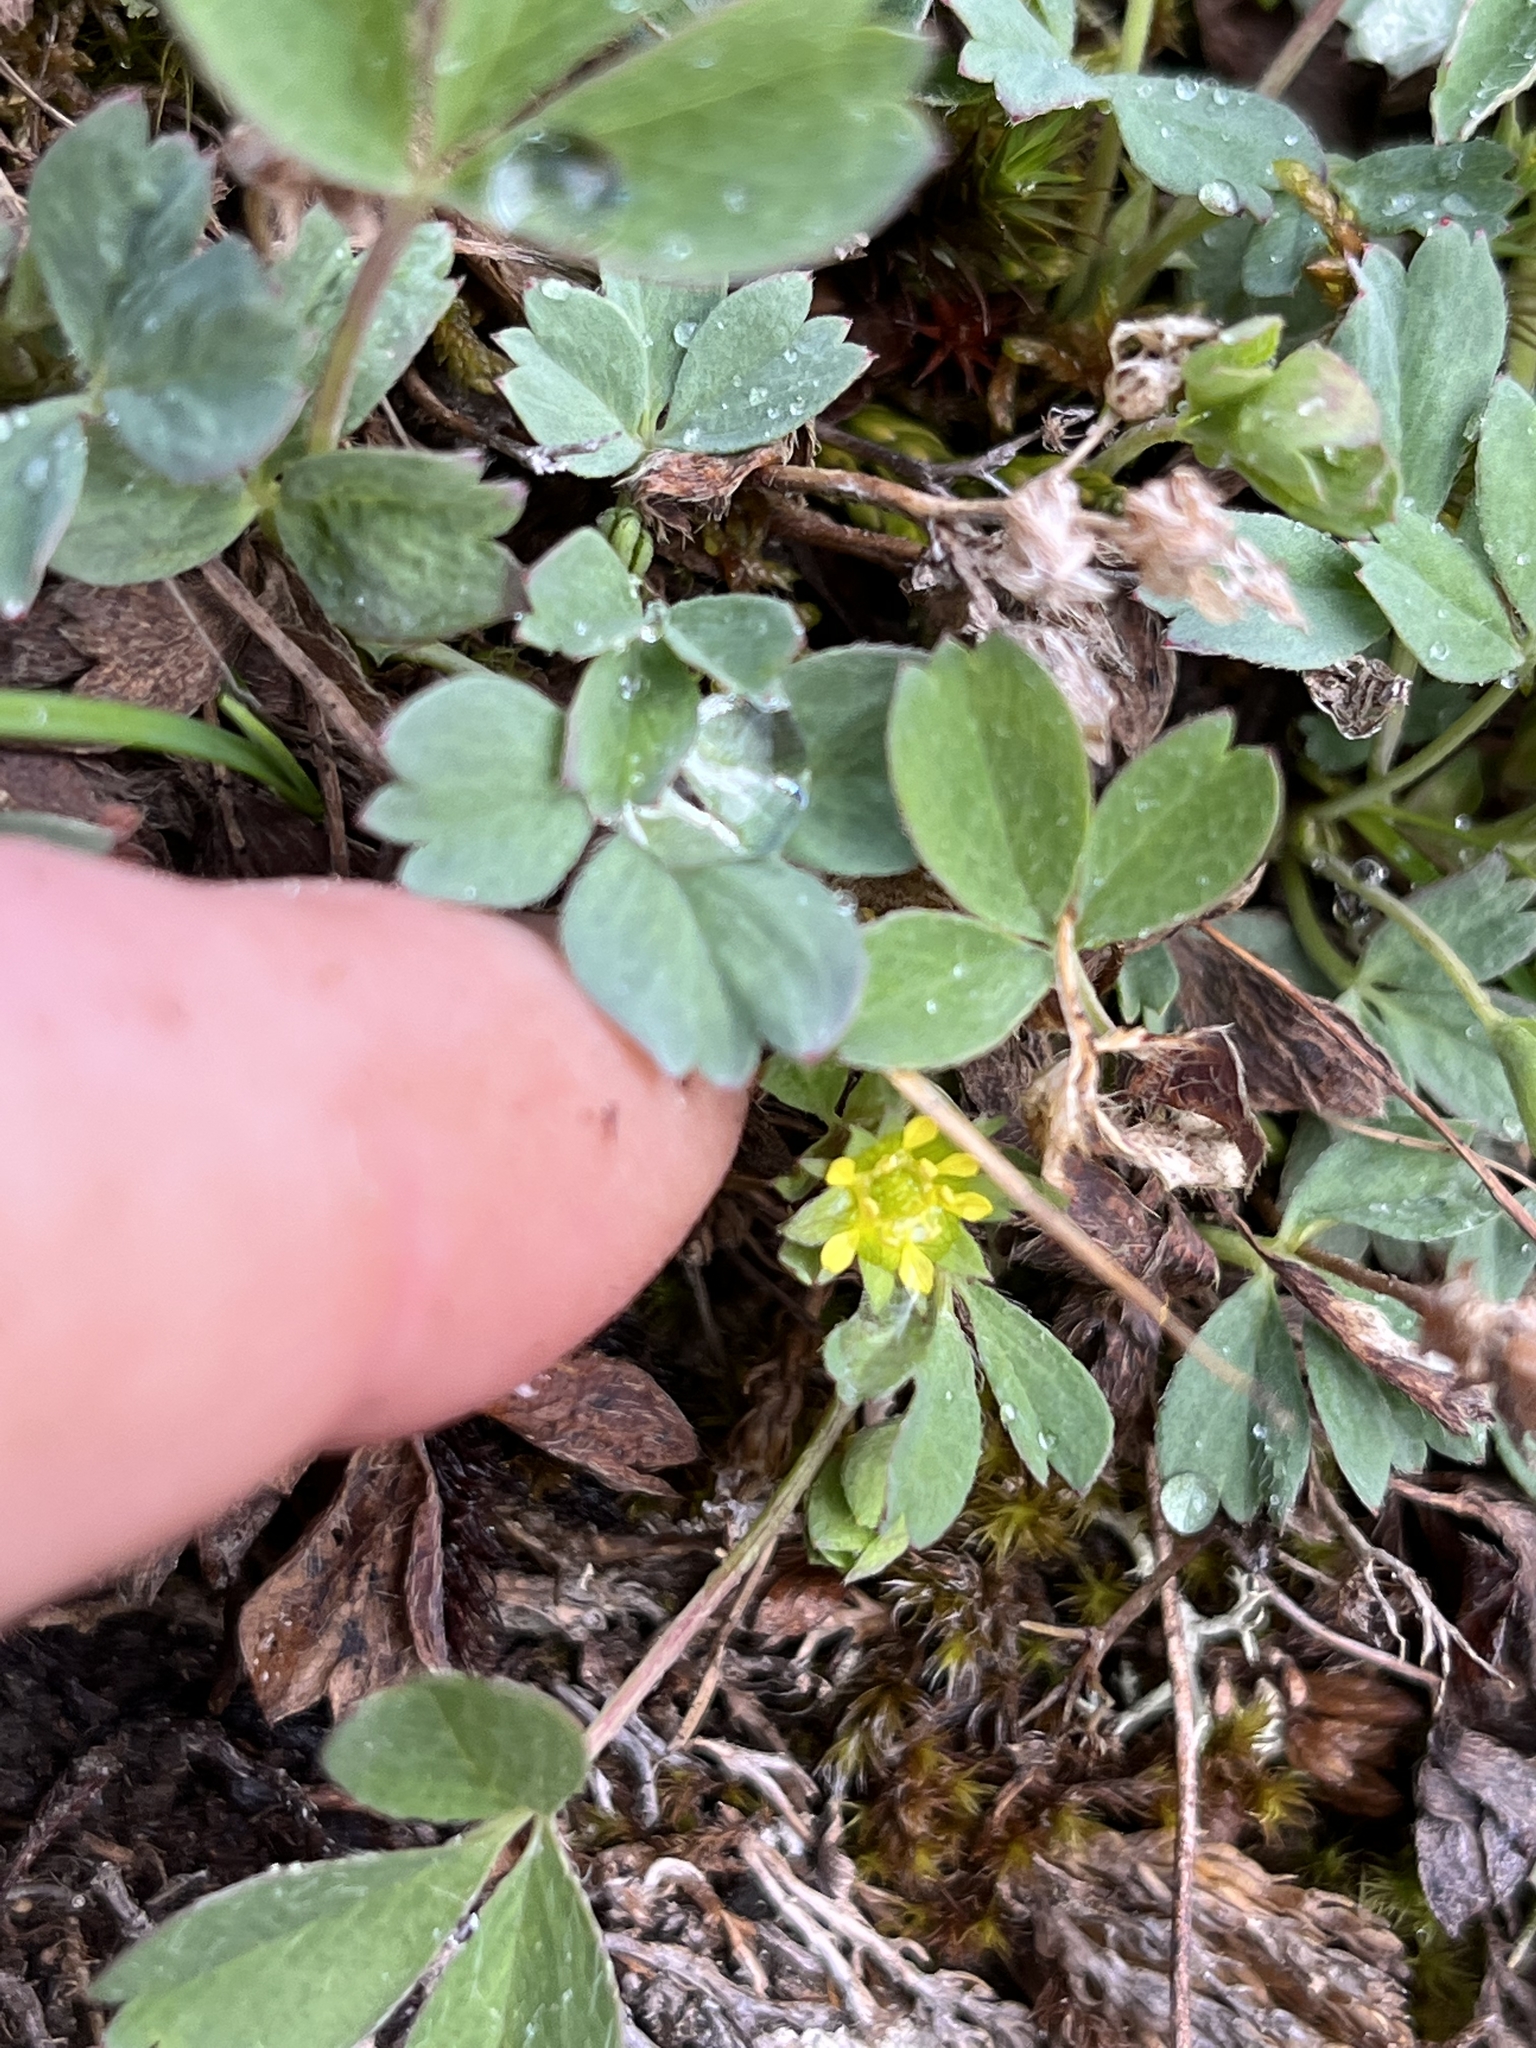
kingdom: Plantae
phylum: Tracheophyta
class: Magnoliopsida
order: Rosales
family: Rosaceae
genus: Sibbaldia
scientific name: Sibbaldia procumbens
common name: Creeping sibbaldia
